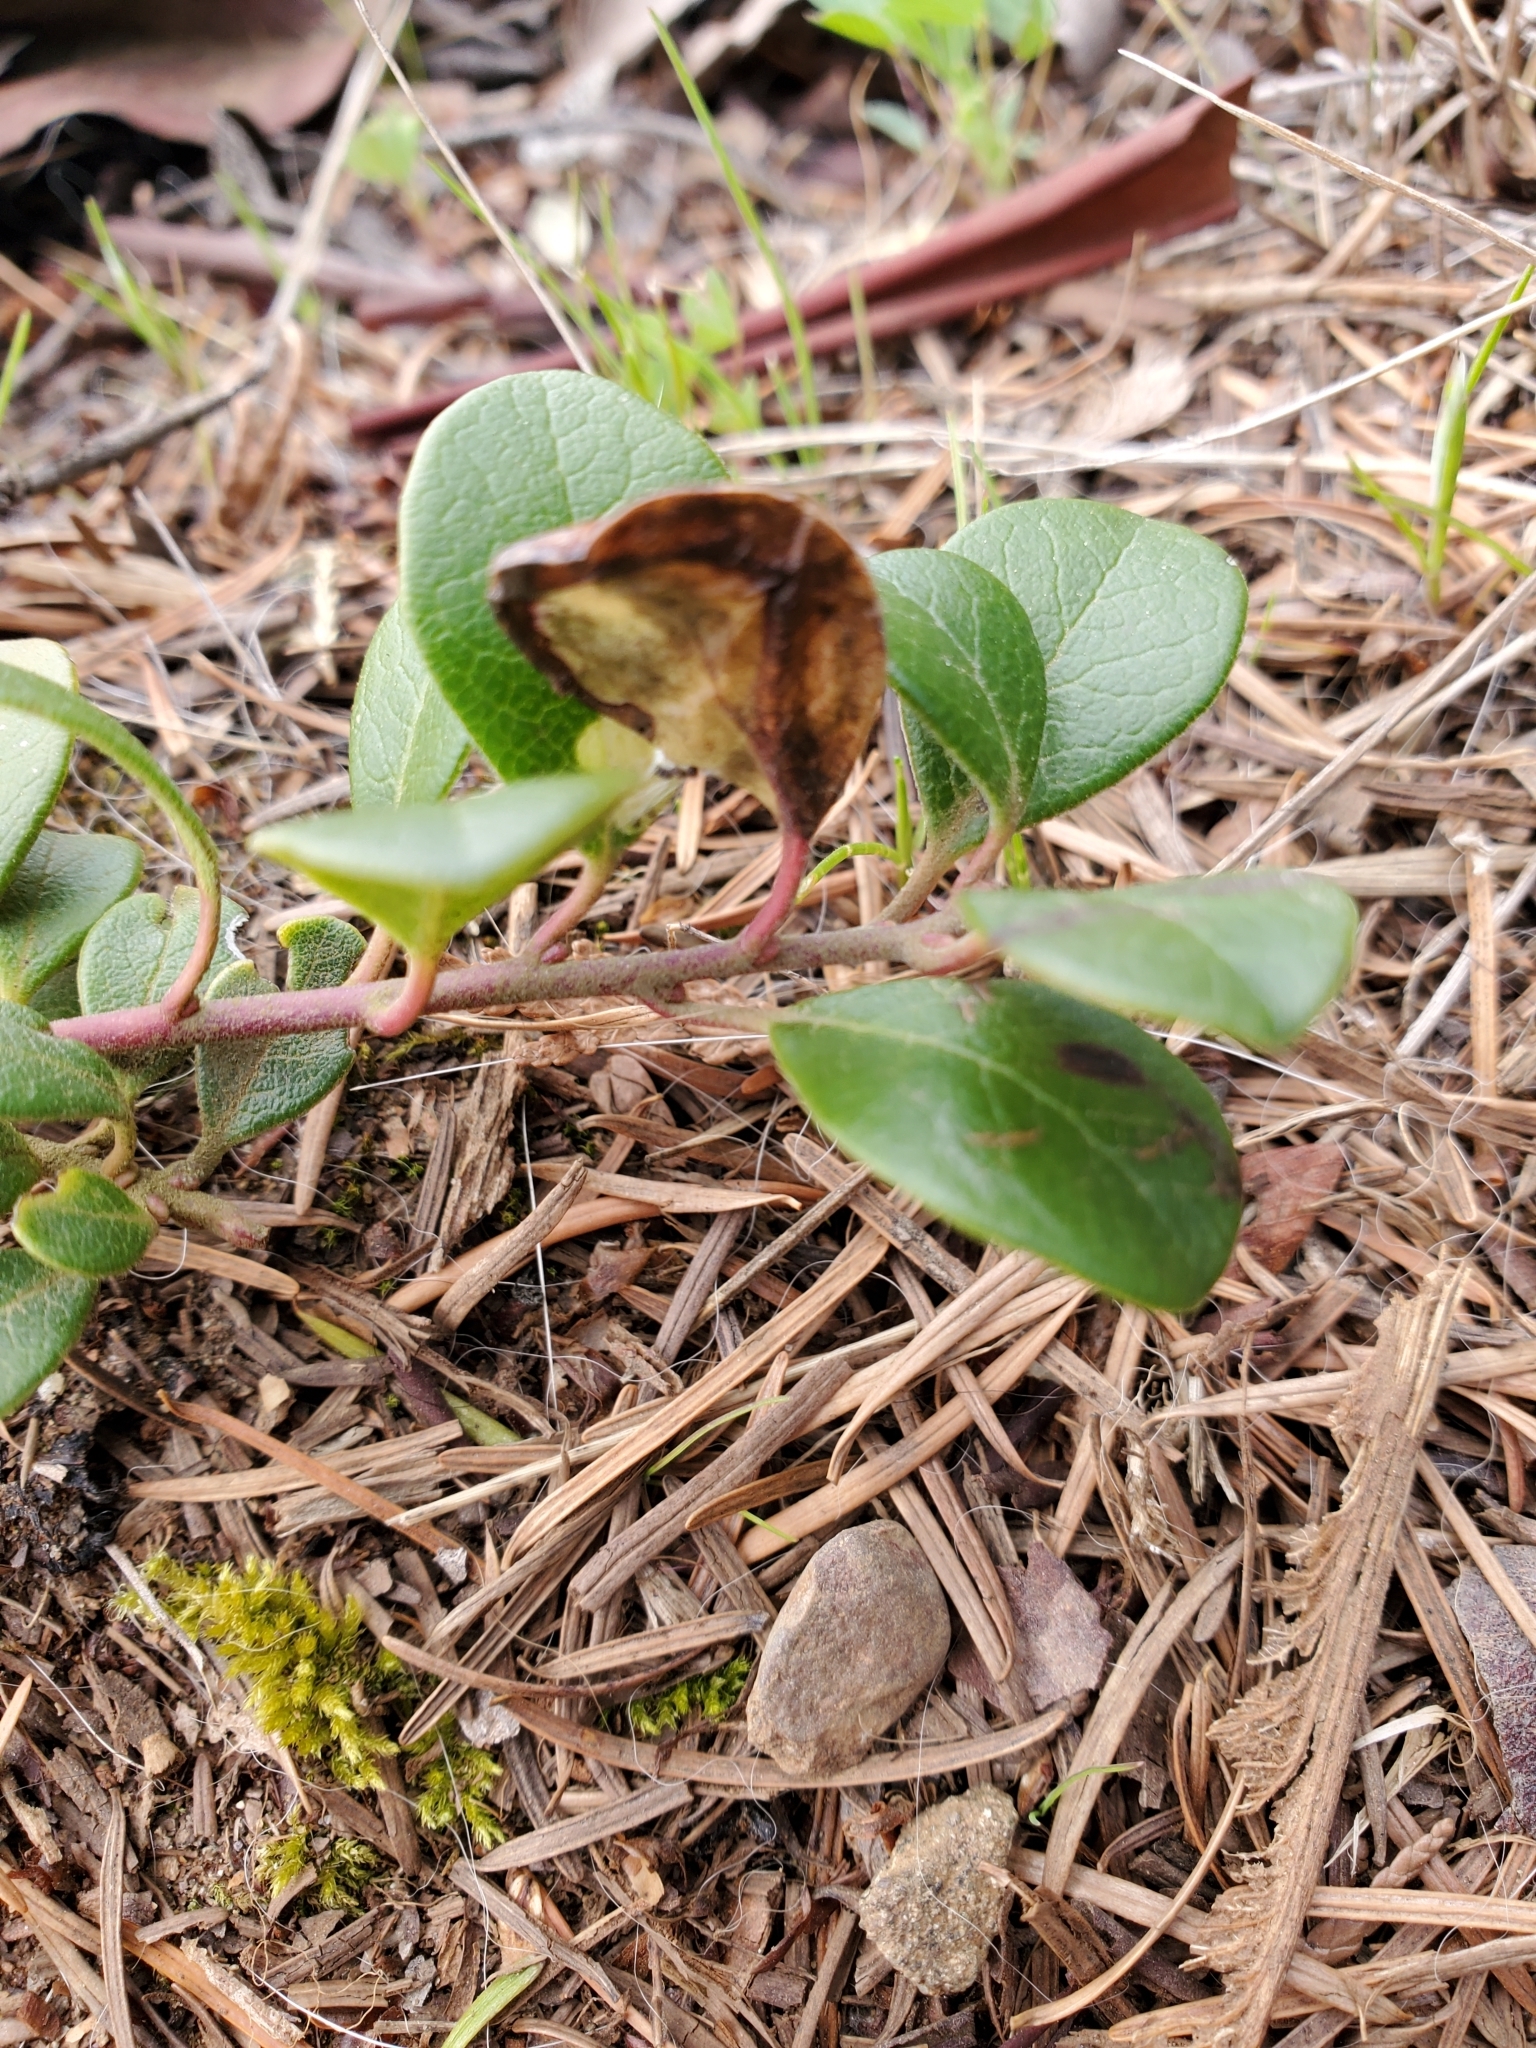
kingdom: Plantae
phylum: Tracheophyta
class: Magnoliopsida
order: Ericales
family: Ericaceae
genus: Arctostaphylos
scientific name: Arctostaphylos uva-ursi
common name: Bearberry
